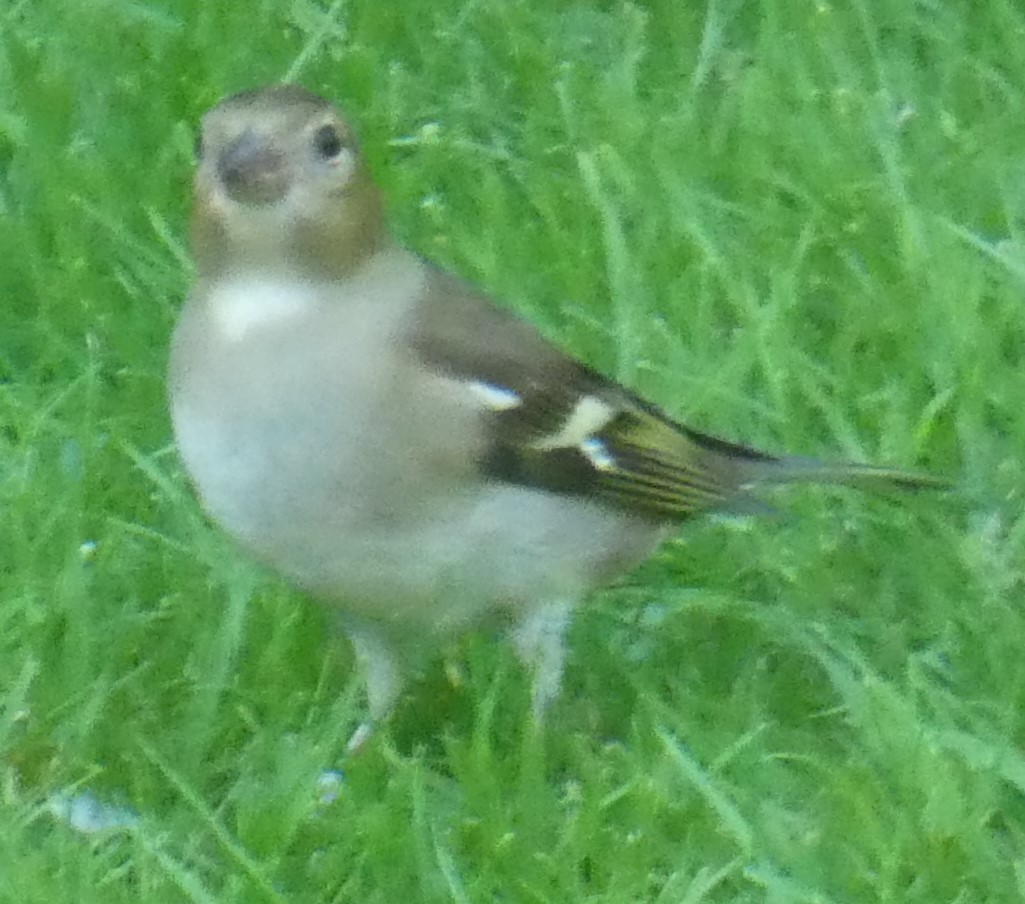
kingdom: Animalia
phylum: Chordata
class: Aves
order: Passeriformes
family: Fringillidae
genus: Fringilla
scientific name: Fringilla coelebs
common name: Common chaffinch
